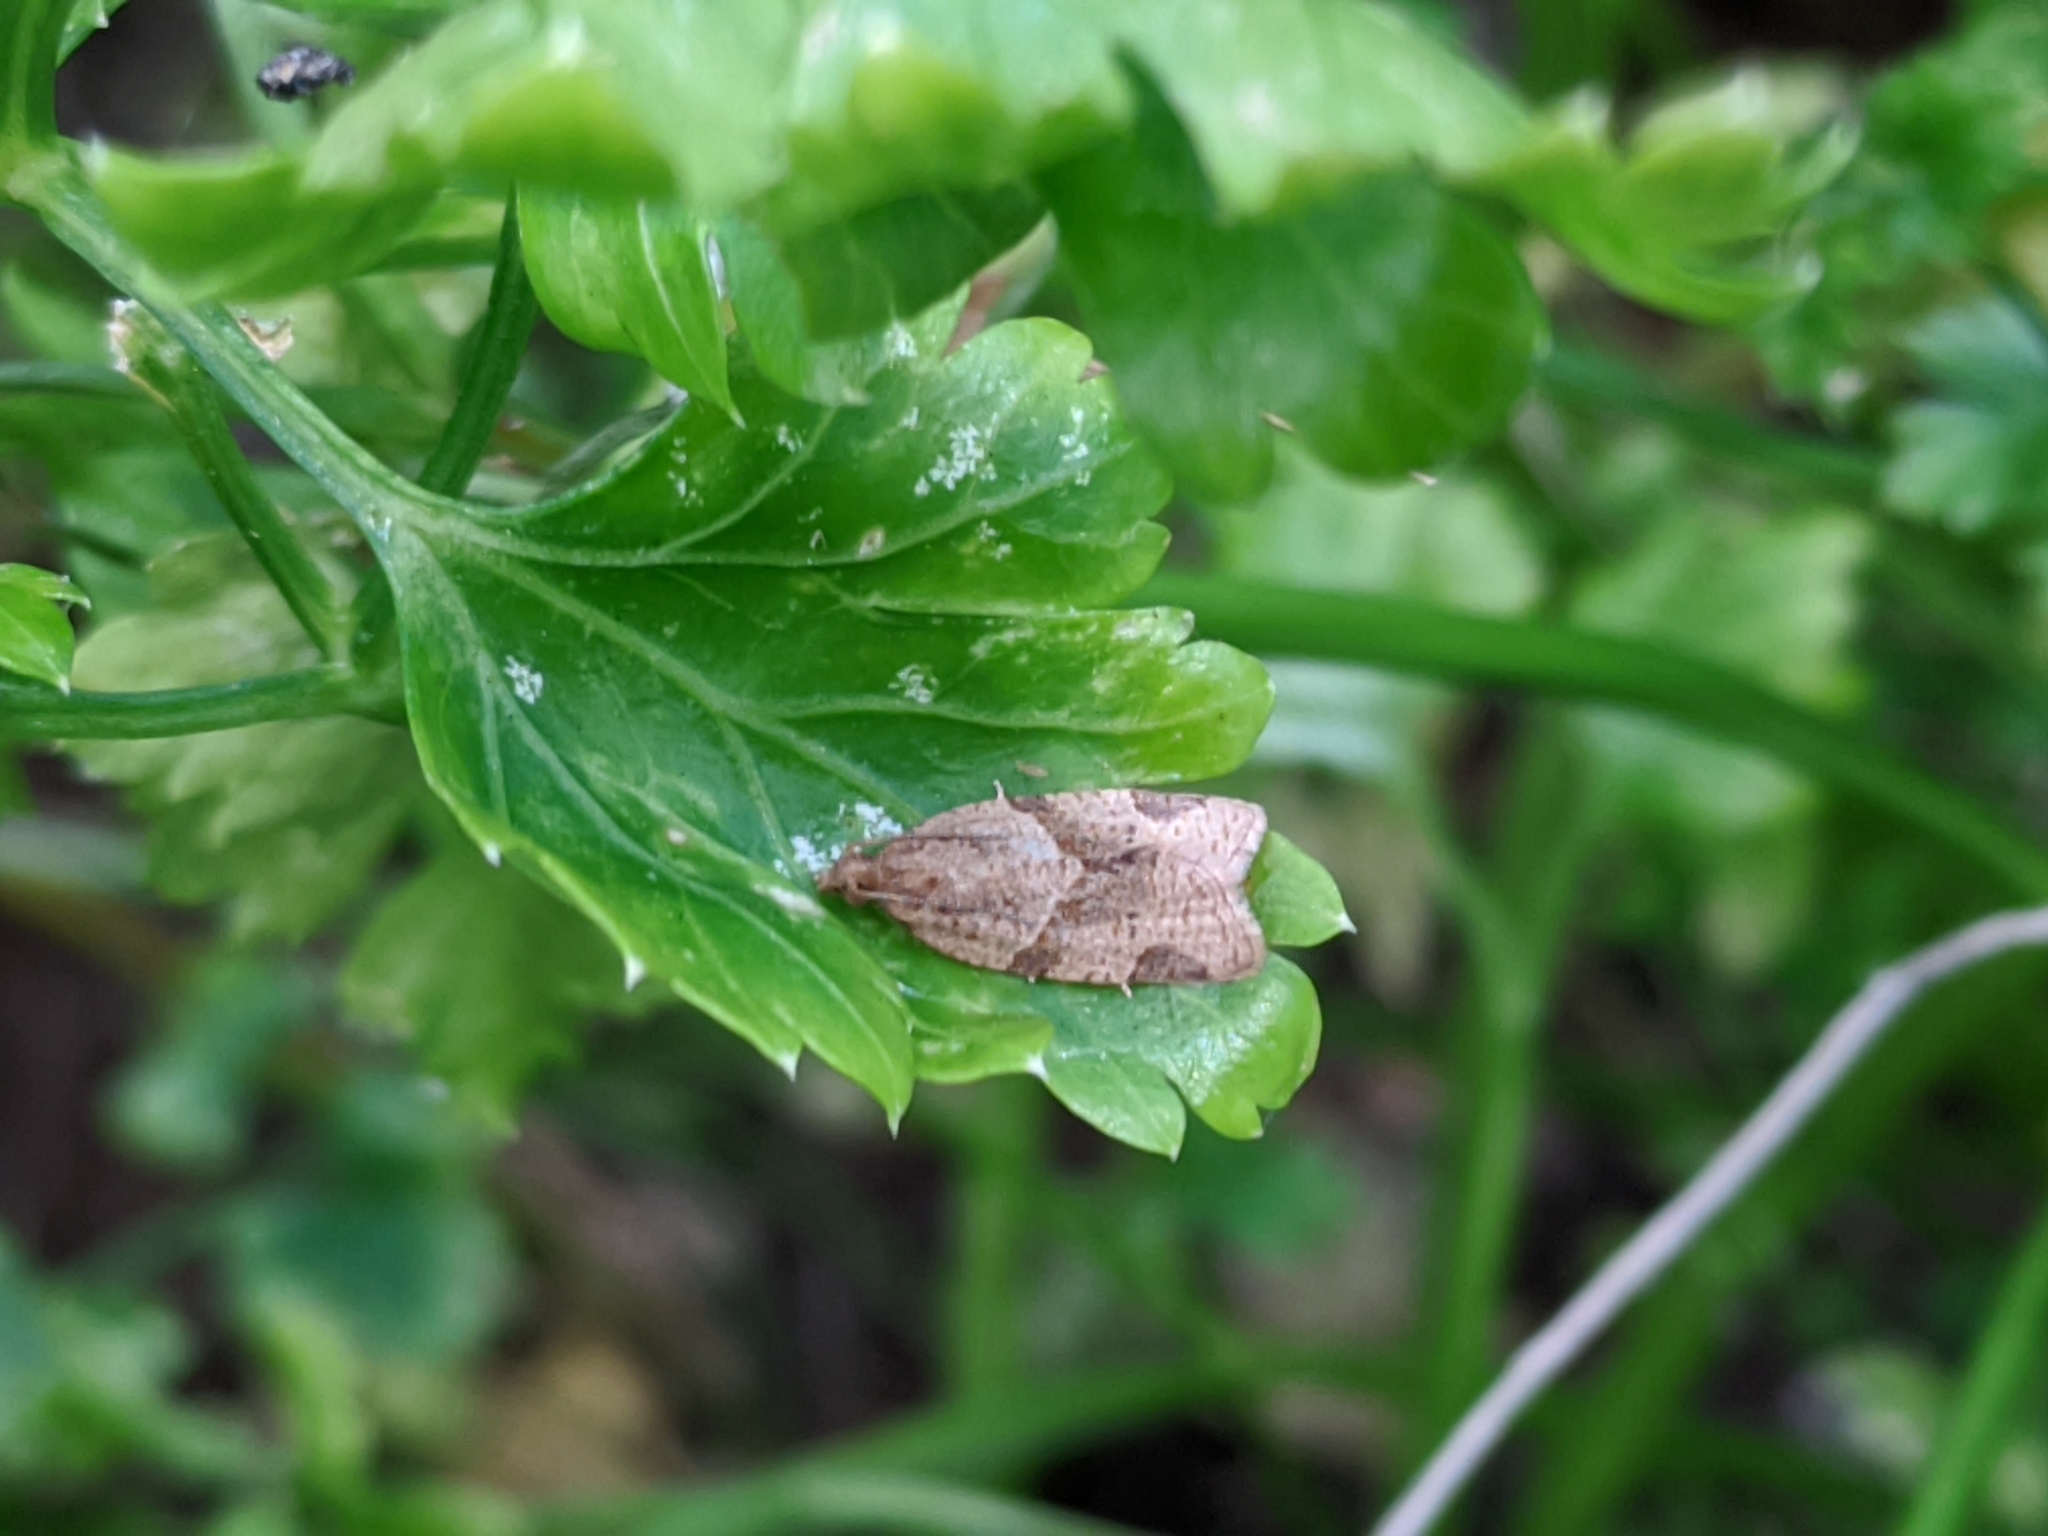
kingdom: Animalia
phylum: Arthropoda
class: Insecta
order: Lepidoptera
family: Tortricidae
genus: Clepsis
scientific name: Clepsis peritana
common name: Garden tortrix
